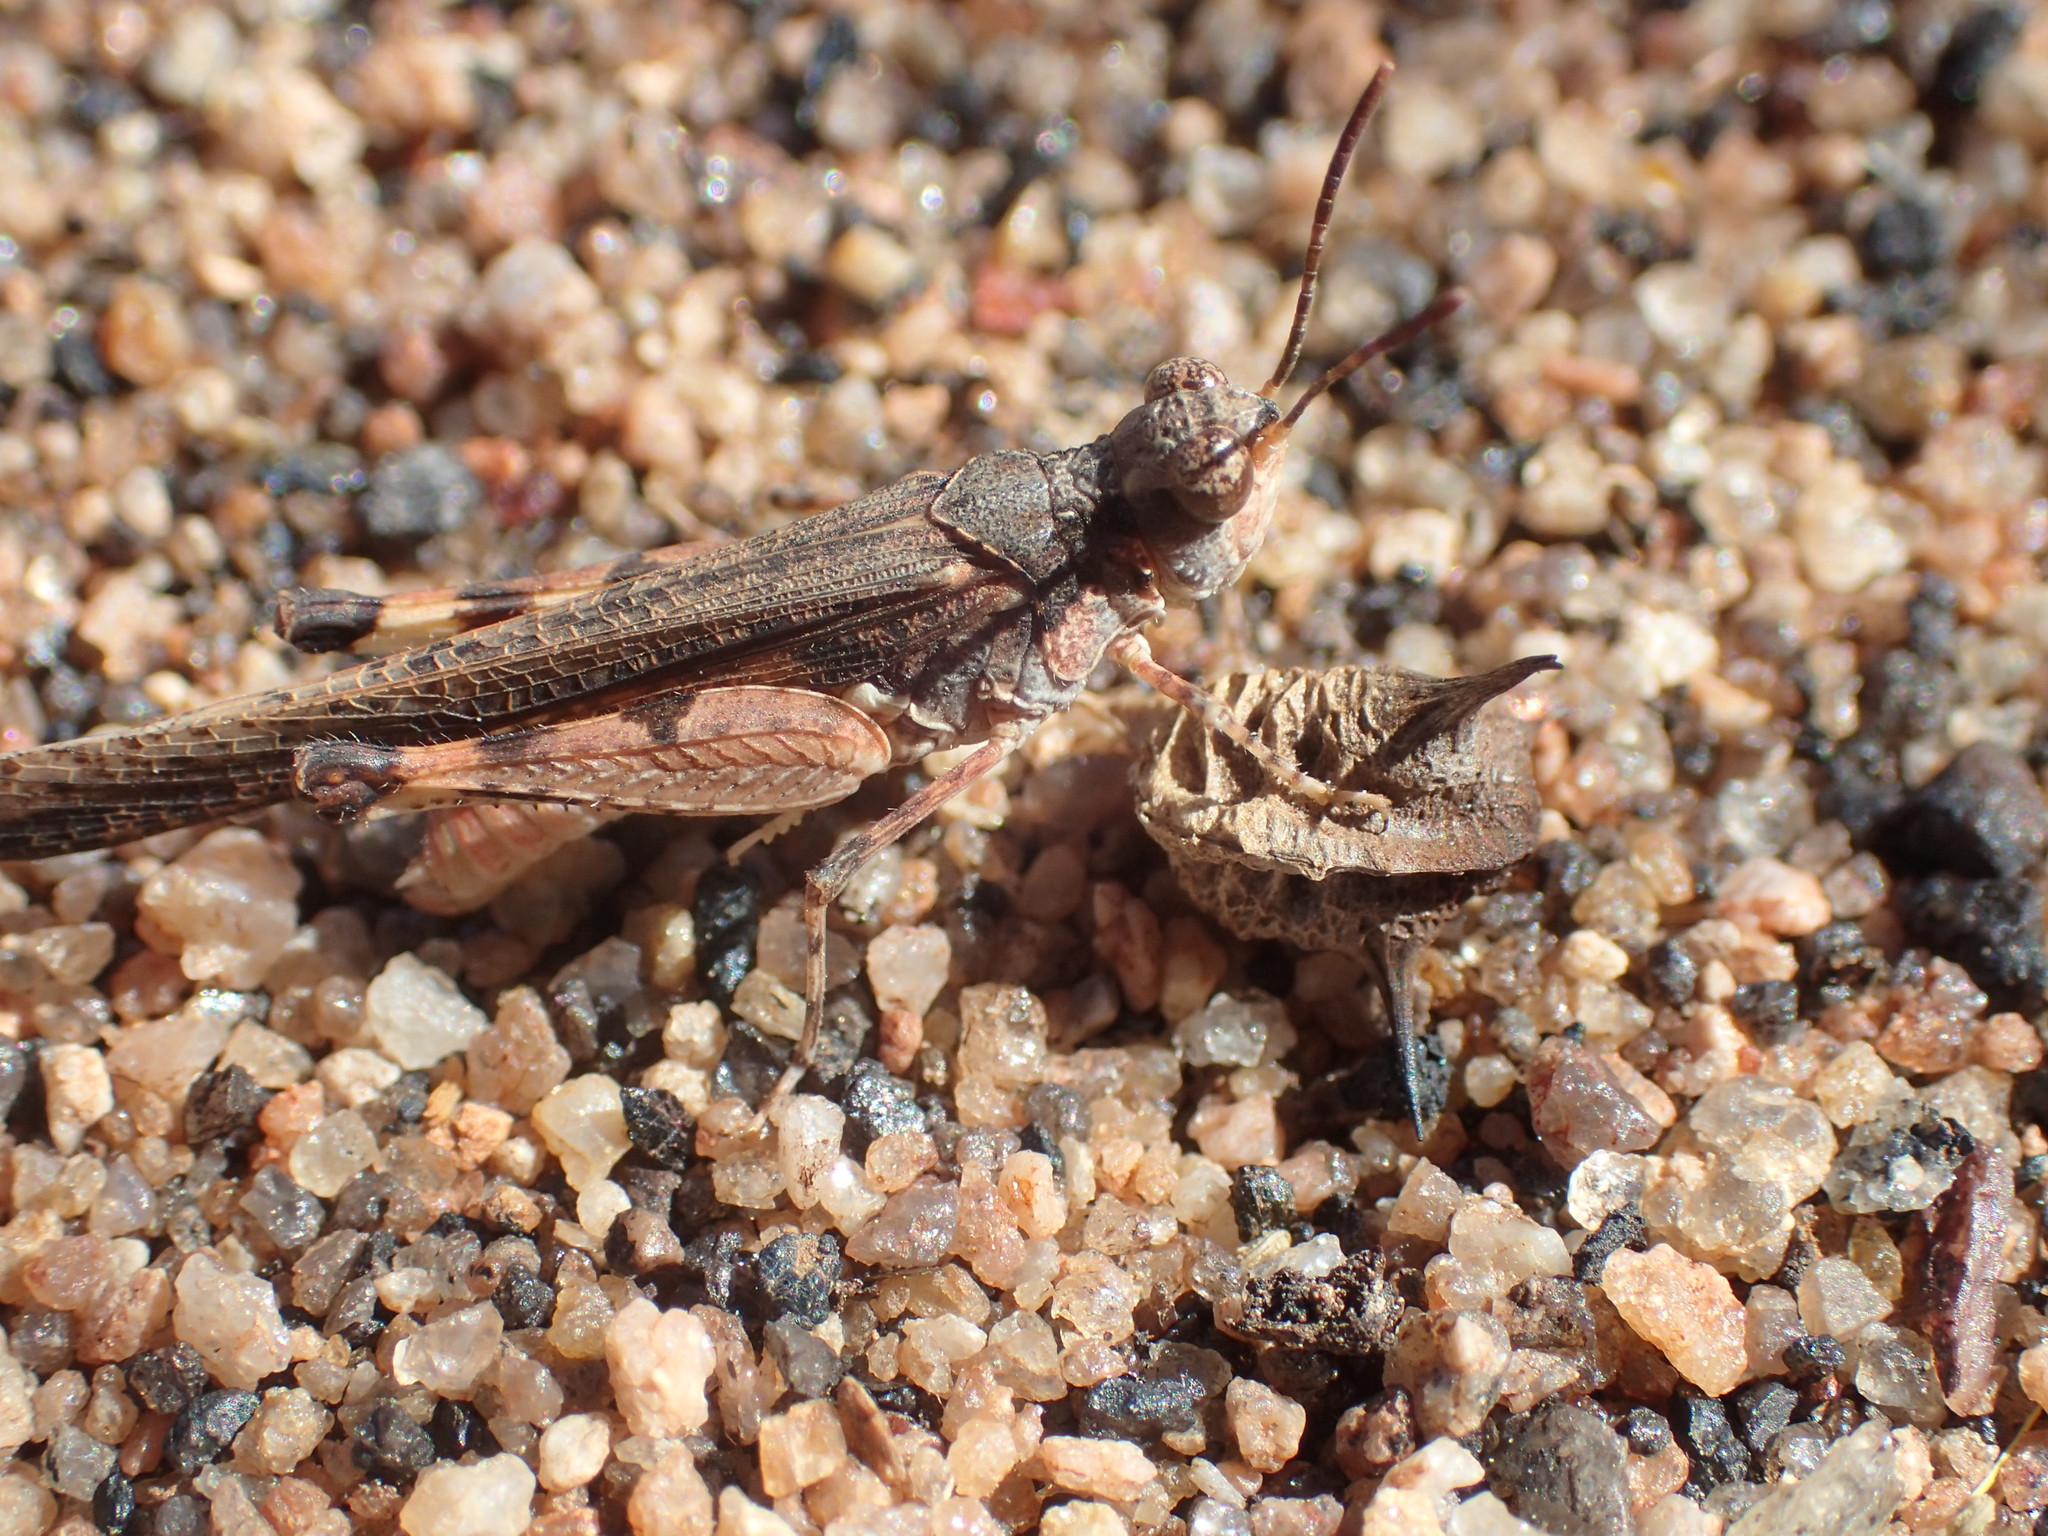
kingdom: Animalia
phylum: Arthropoda
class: Insecta
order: Orthoptera
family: Acrididae
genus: Pycnostictus
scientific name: Pycnostictus seriatus
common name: Common bandwing
